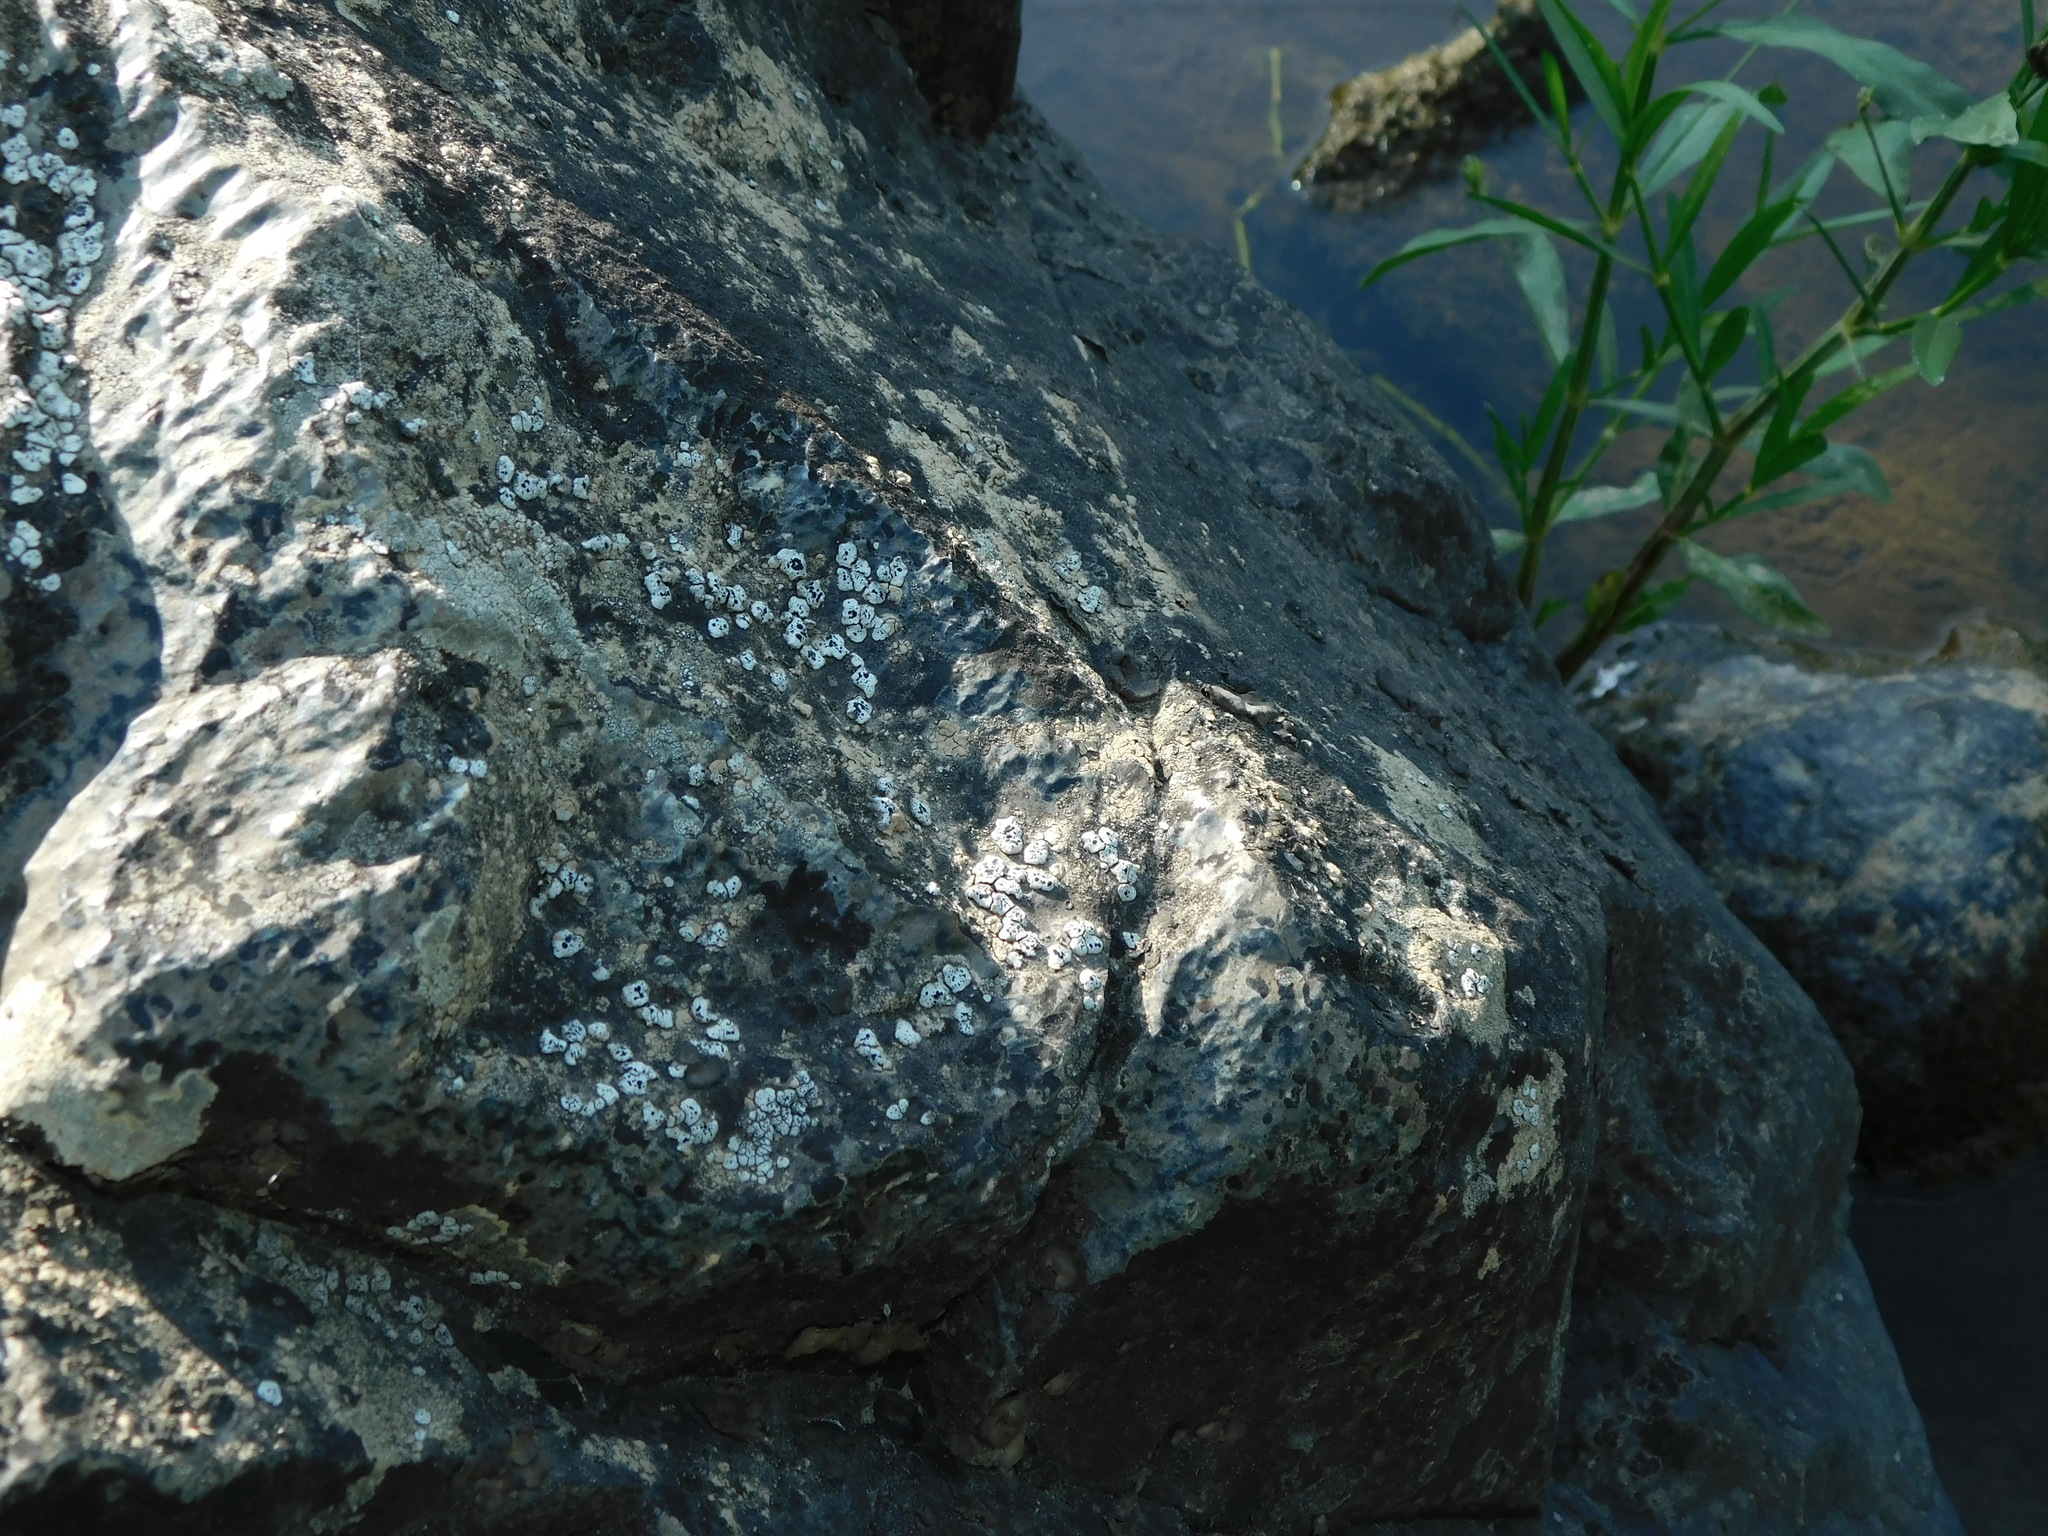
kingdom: Fungi
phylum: Ascomycota
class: Lecanoromycetes
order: Caliciales
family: Caliciaceae
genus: Dermiscellum
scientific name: Dermiscellum oulocheilum
